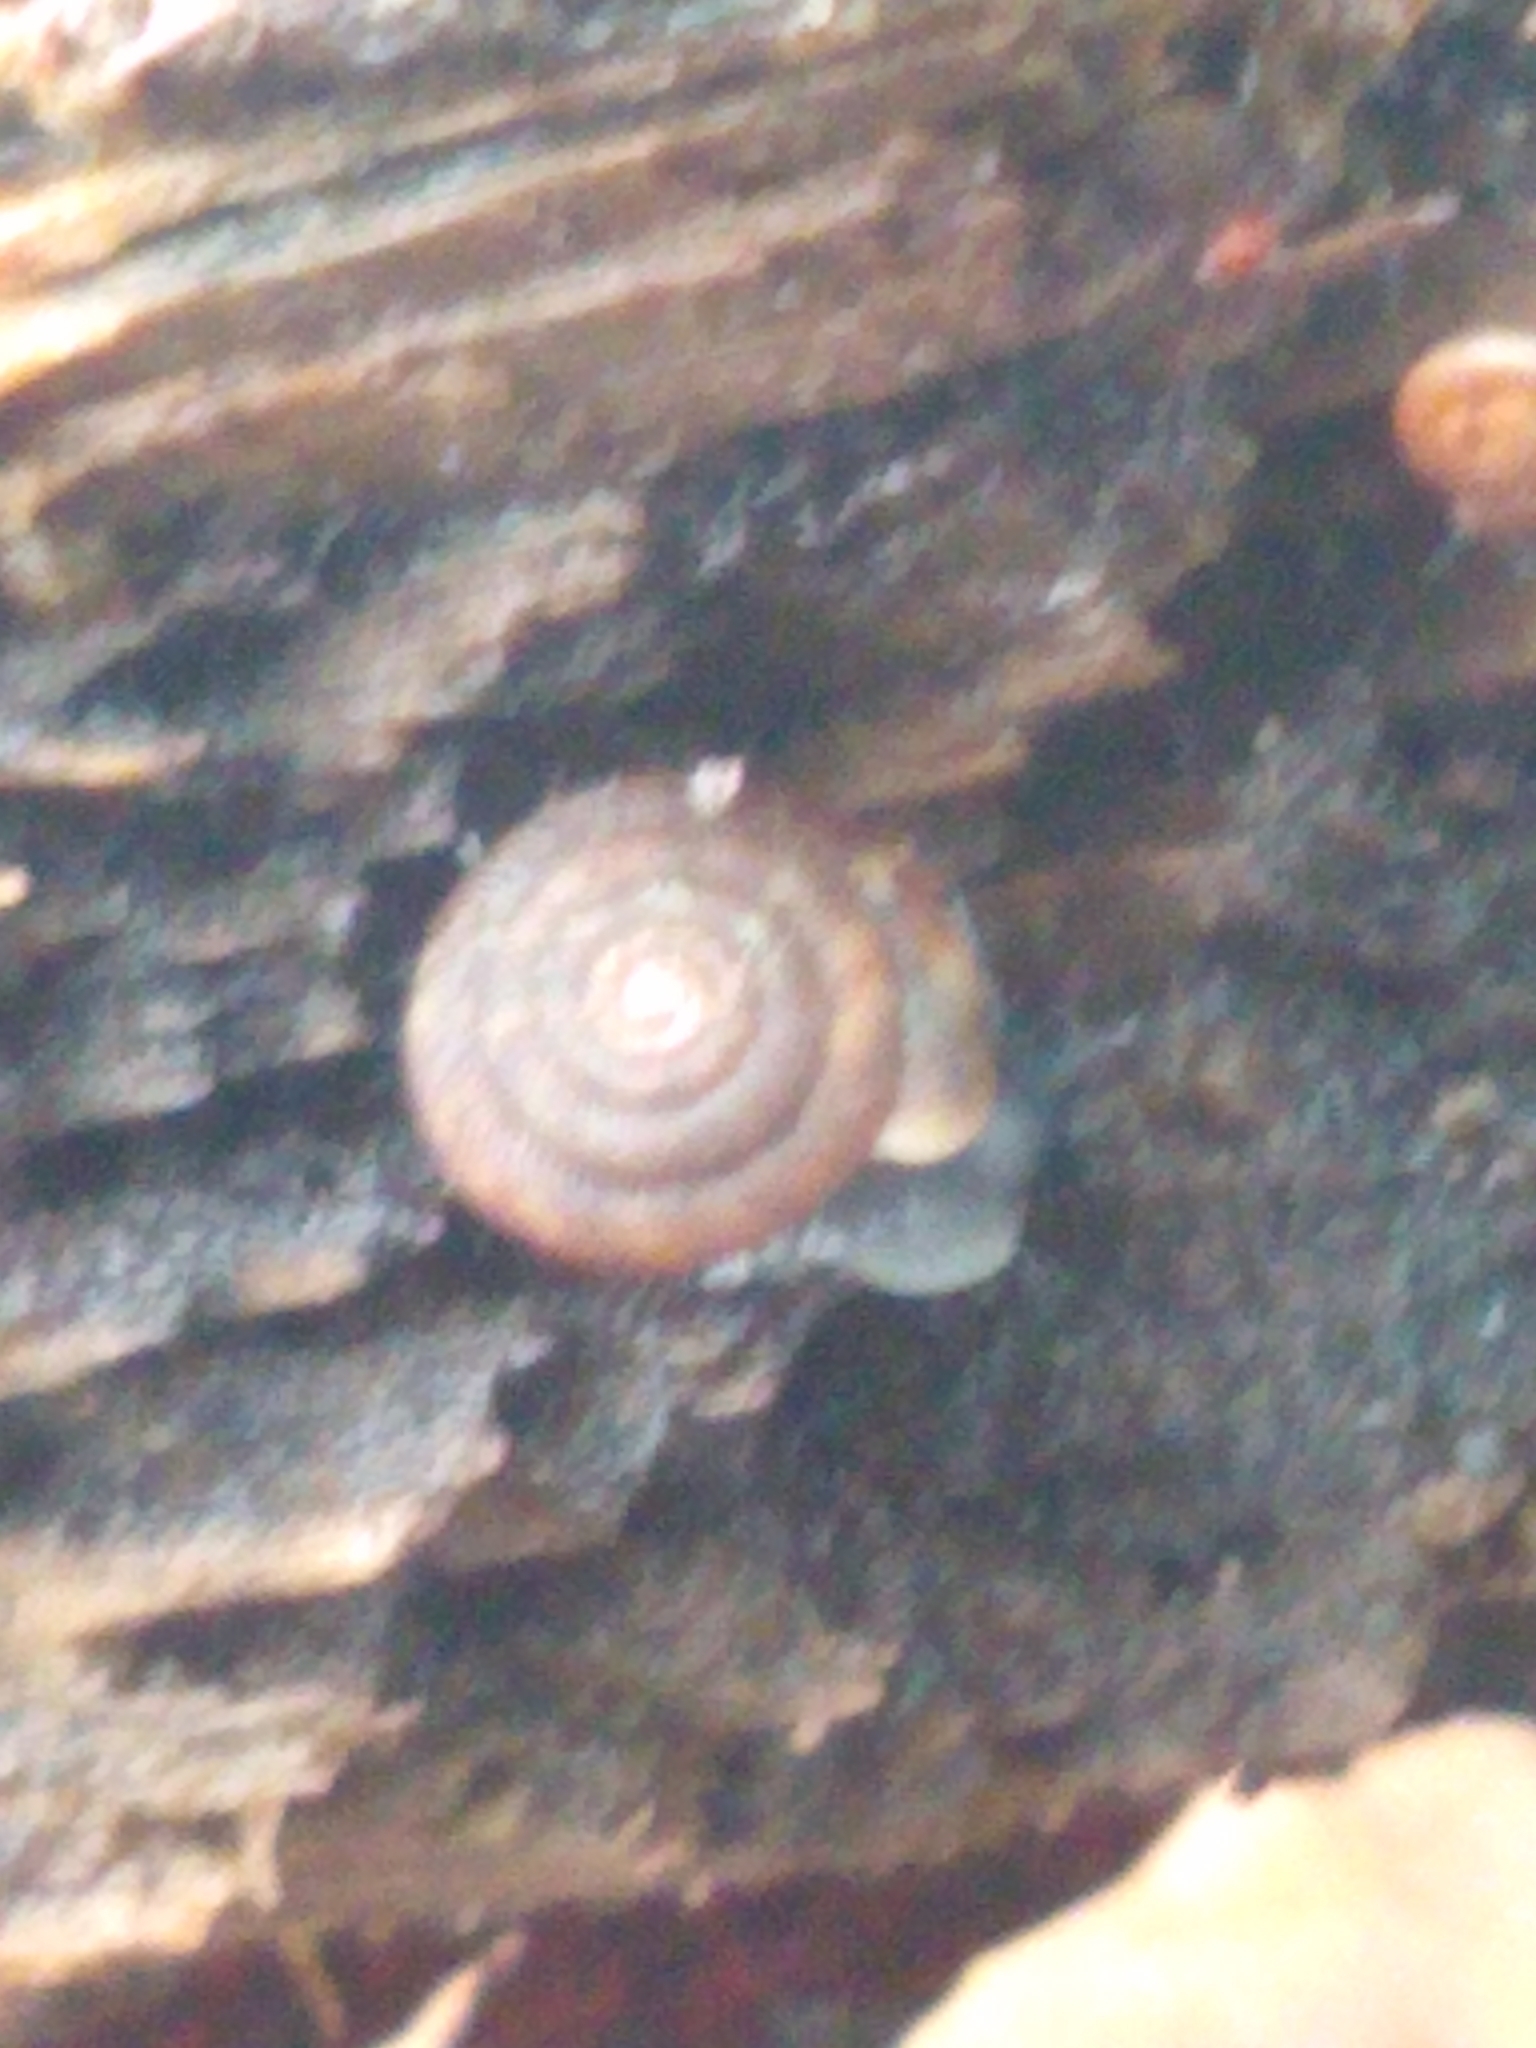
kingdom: Animalia
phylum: Mollusca
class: Gastropoda
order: Stylommatophora
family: Discidae
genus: Discus
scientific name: Discus rotundatus
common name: Rounded snail
